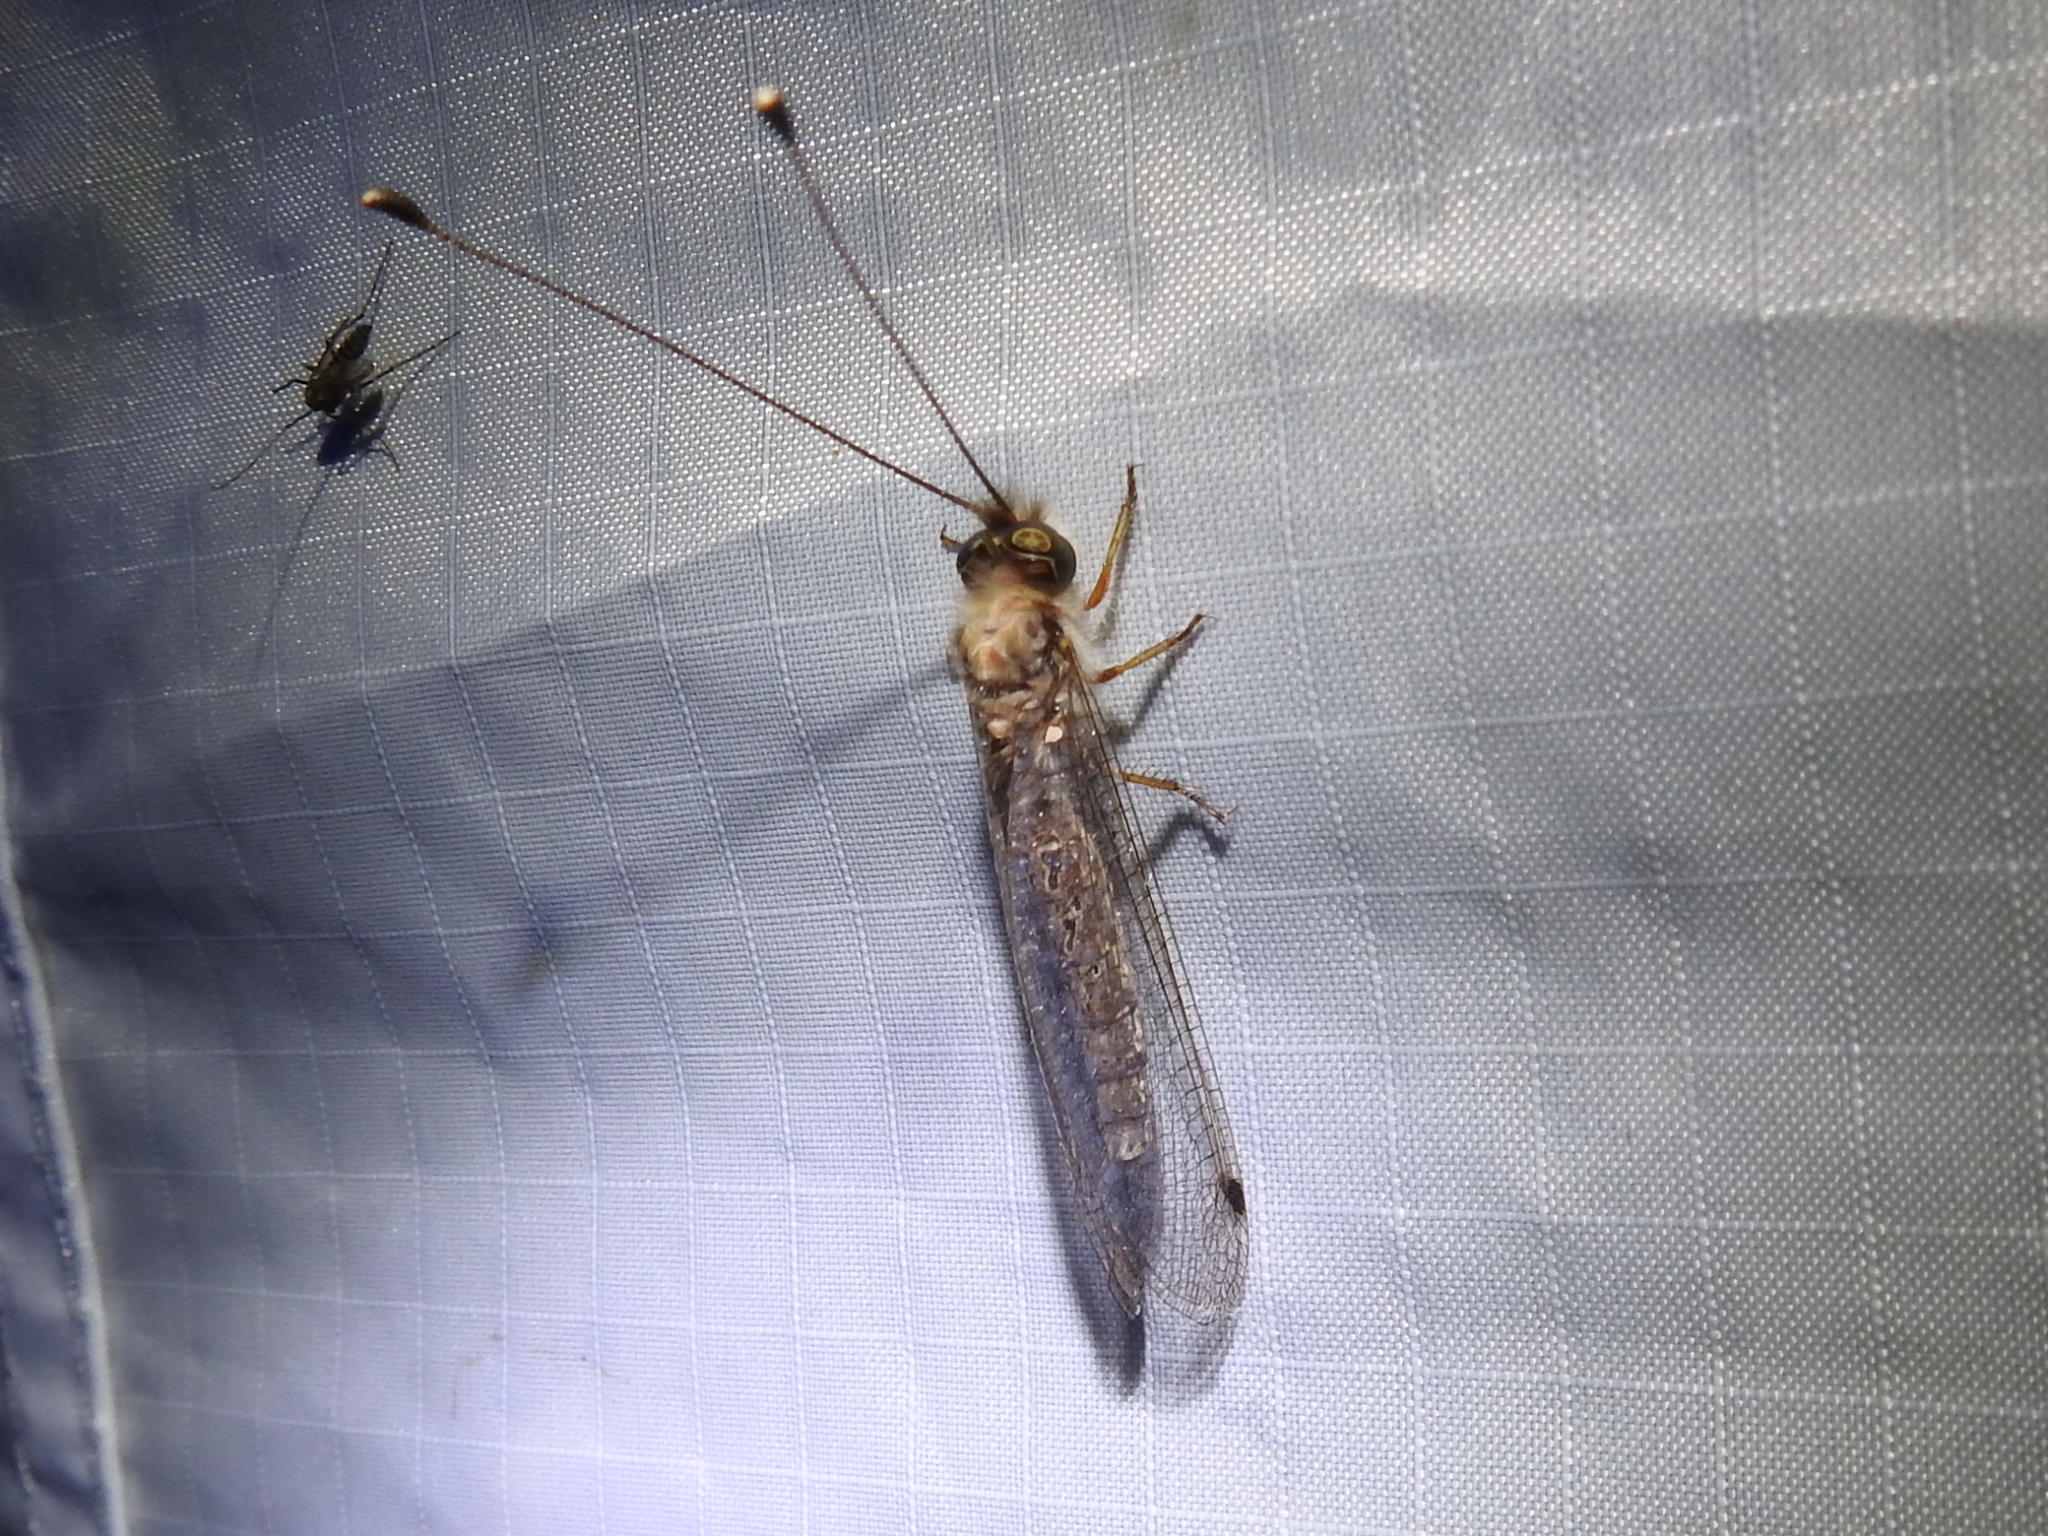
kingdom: Animalia
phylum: Arthropoda
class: Insecta
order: Neuroptera
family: Ascalaphidae
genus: Ululodes
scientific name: Ululodes macleayanus
